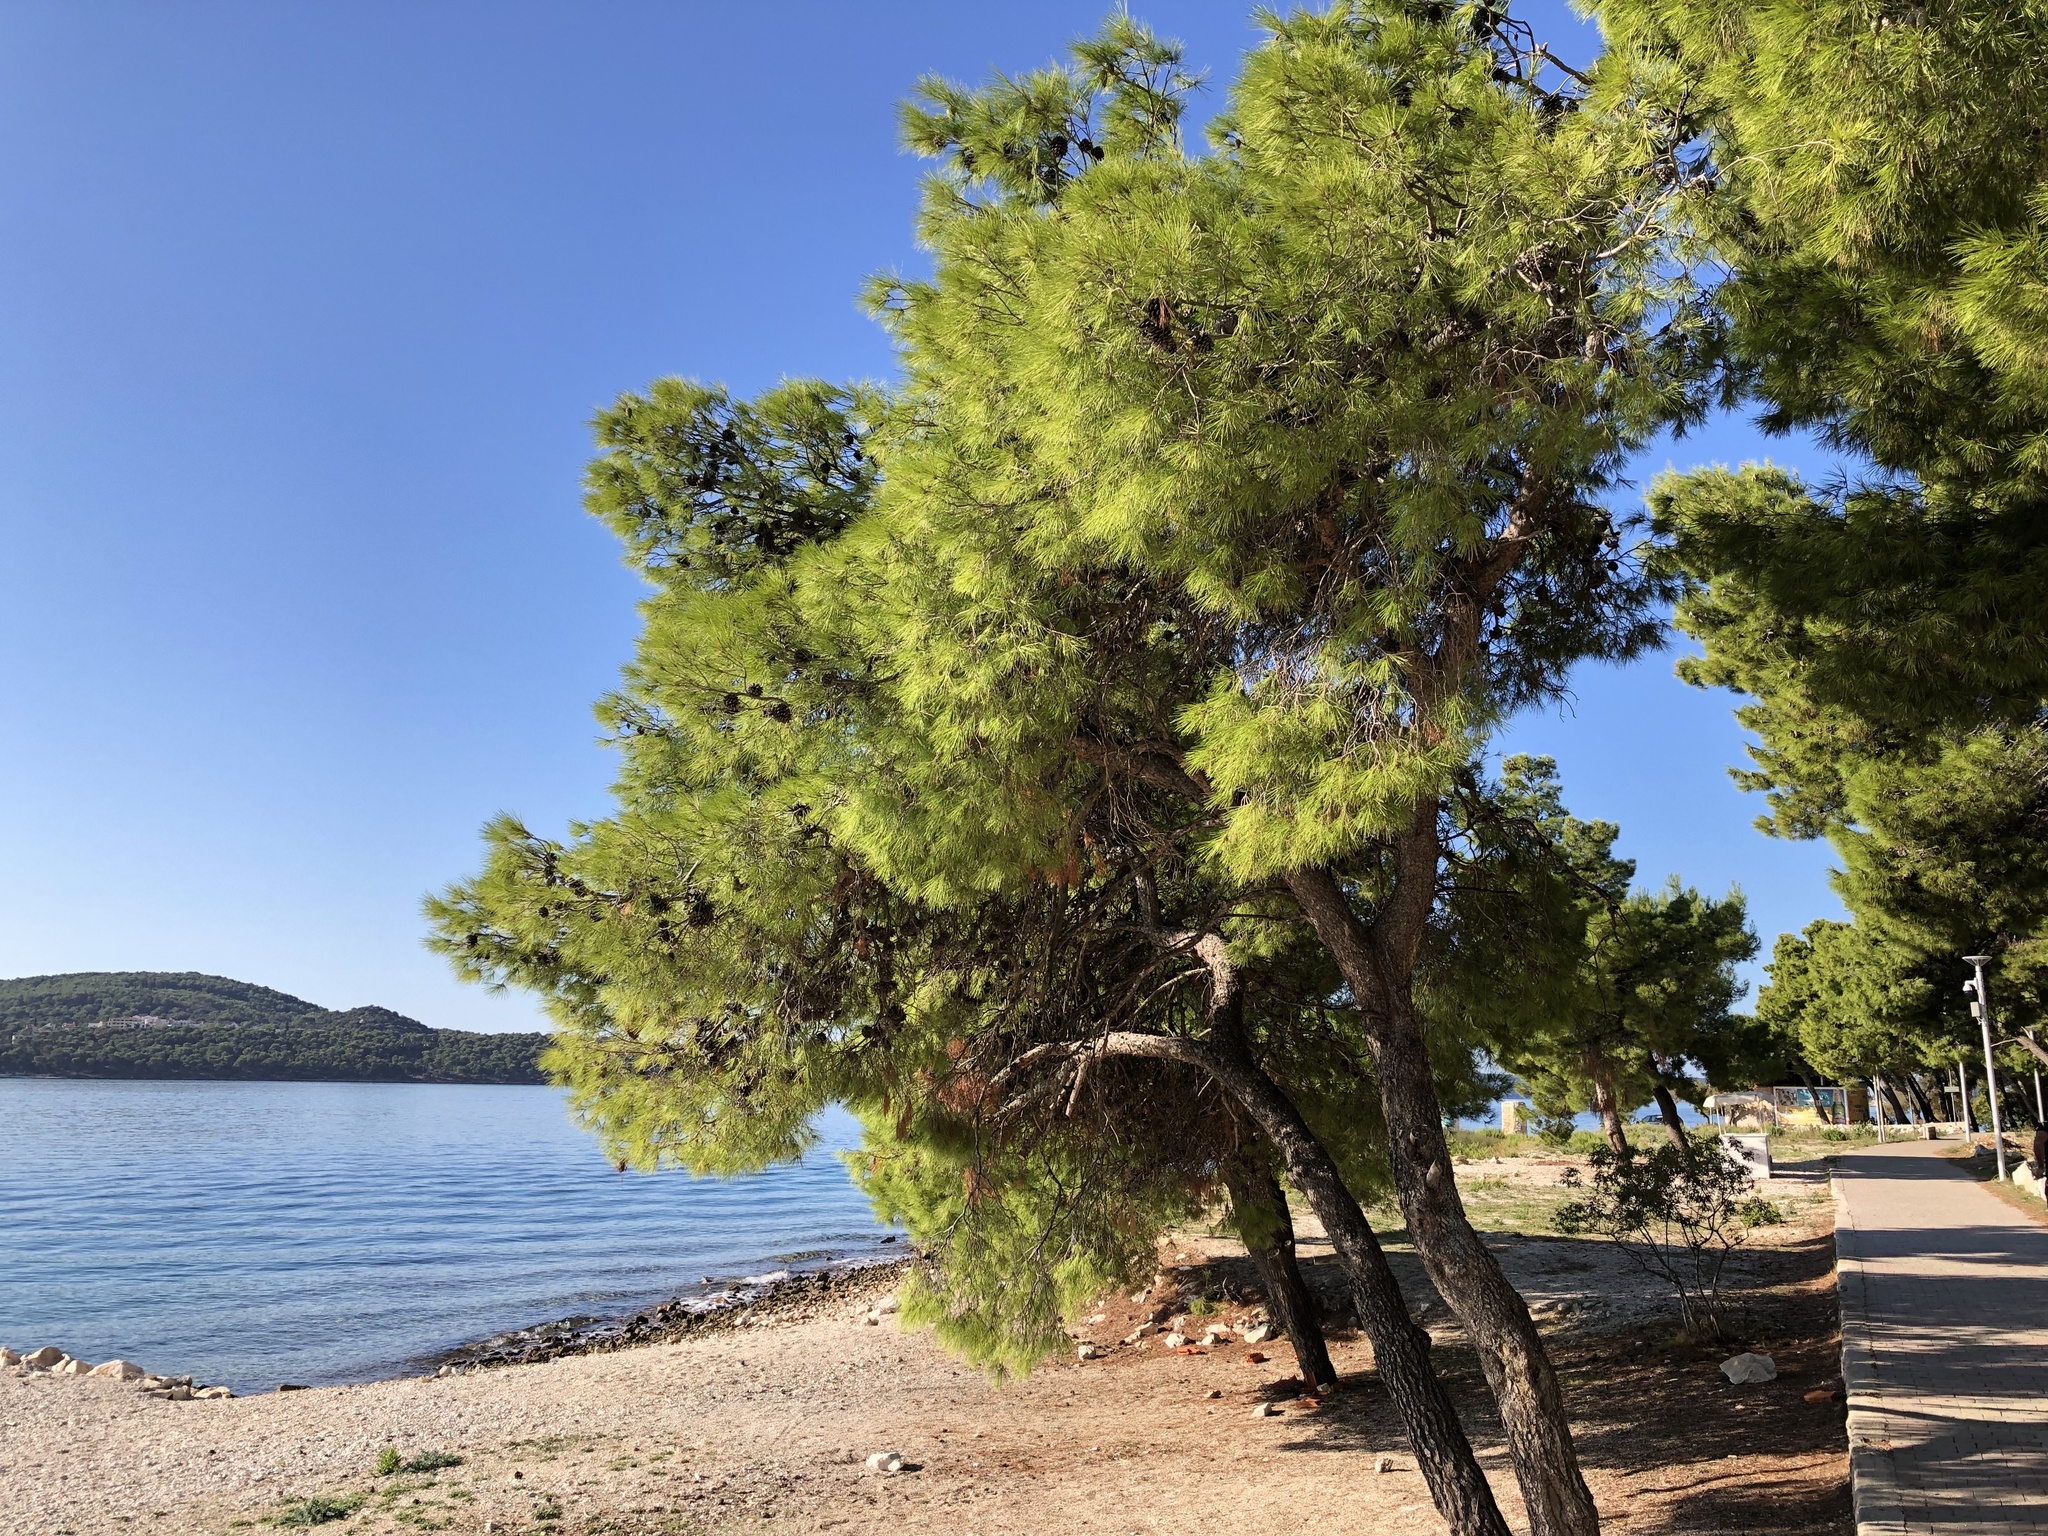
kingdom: Plantae
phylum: Tracheophyta
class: Pinopsida
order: Pinales
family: Pinaceae
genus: Pinus
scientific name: Pinus halepensis
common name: Aleppo pine
